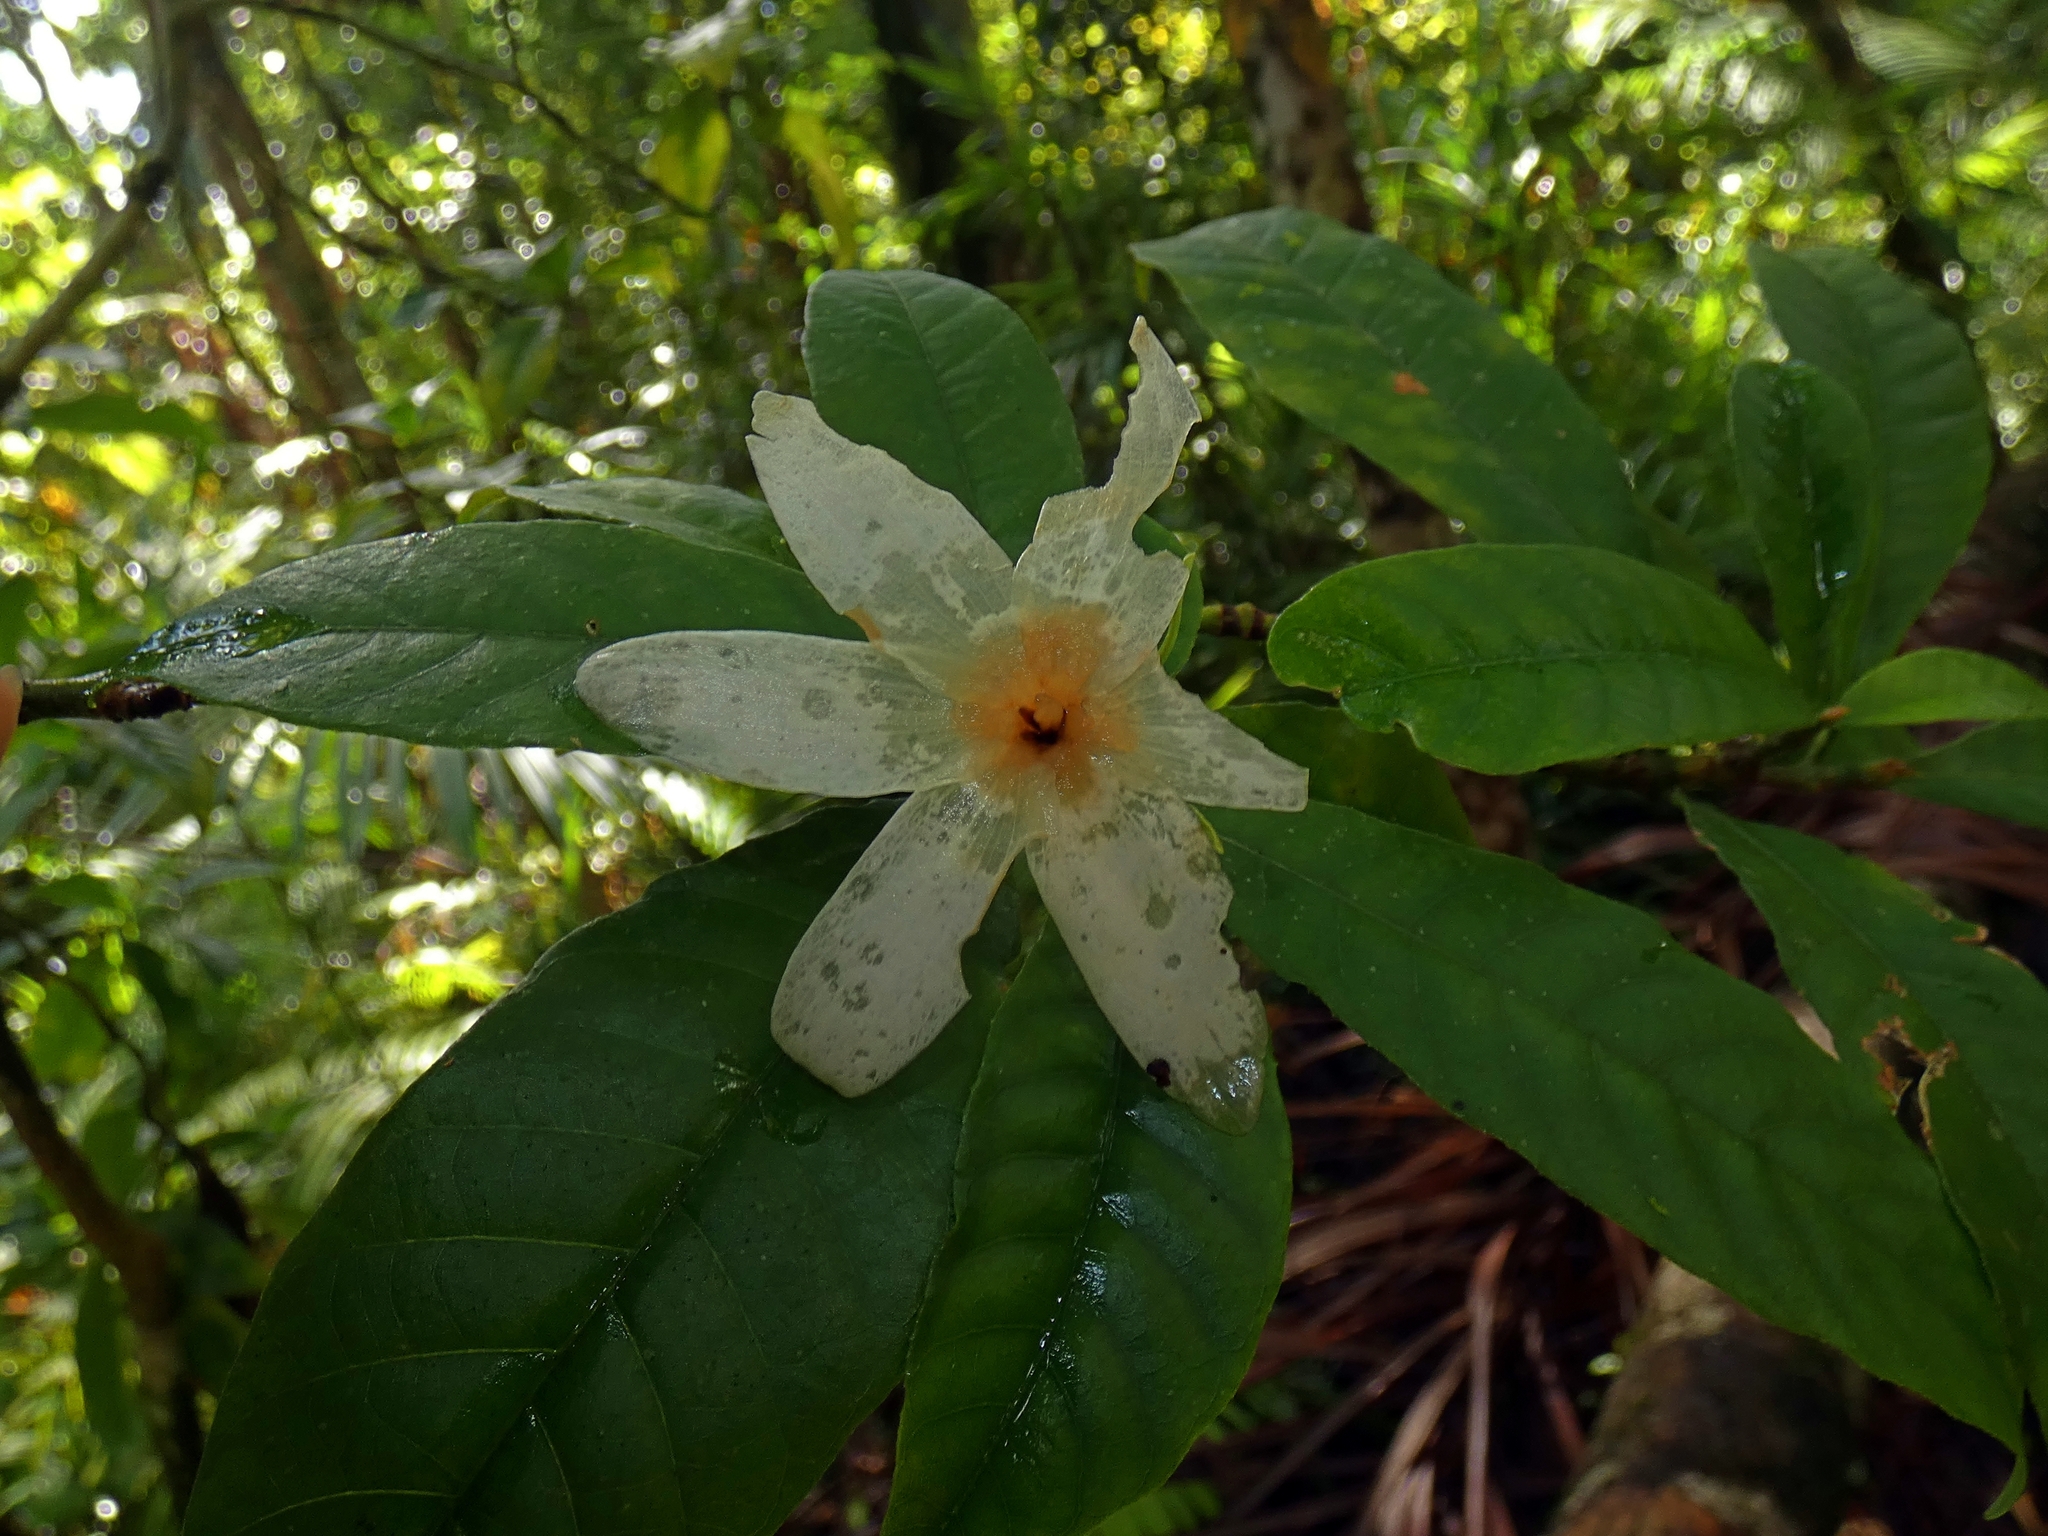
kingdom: Plantae
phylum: Tracheophyta
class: Magnoliopsida
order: Gentianales
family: Rubiaceae
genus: Gardenia
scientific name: Gardenia actinocarpa
